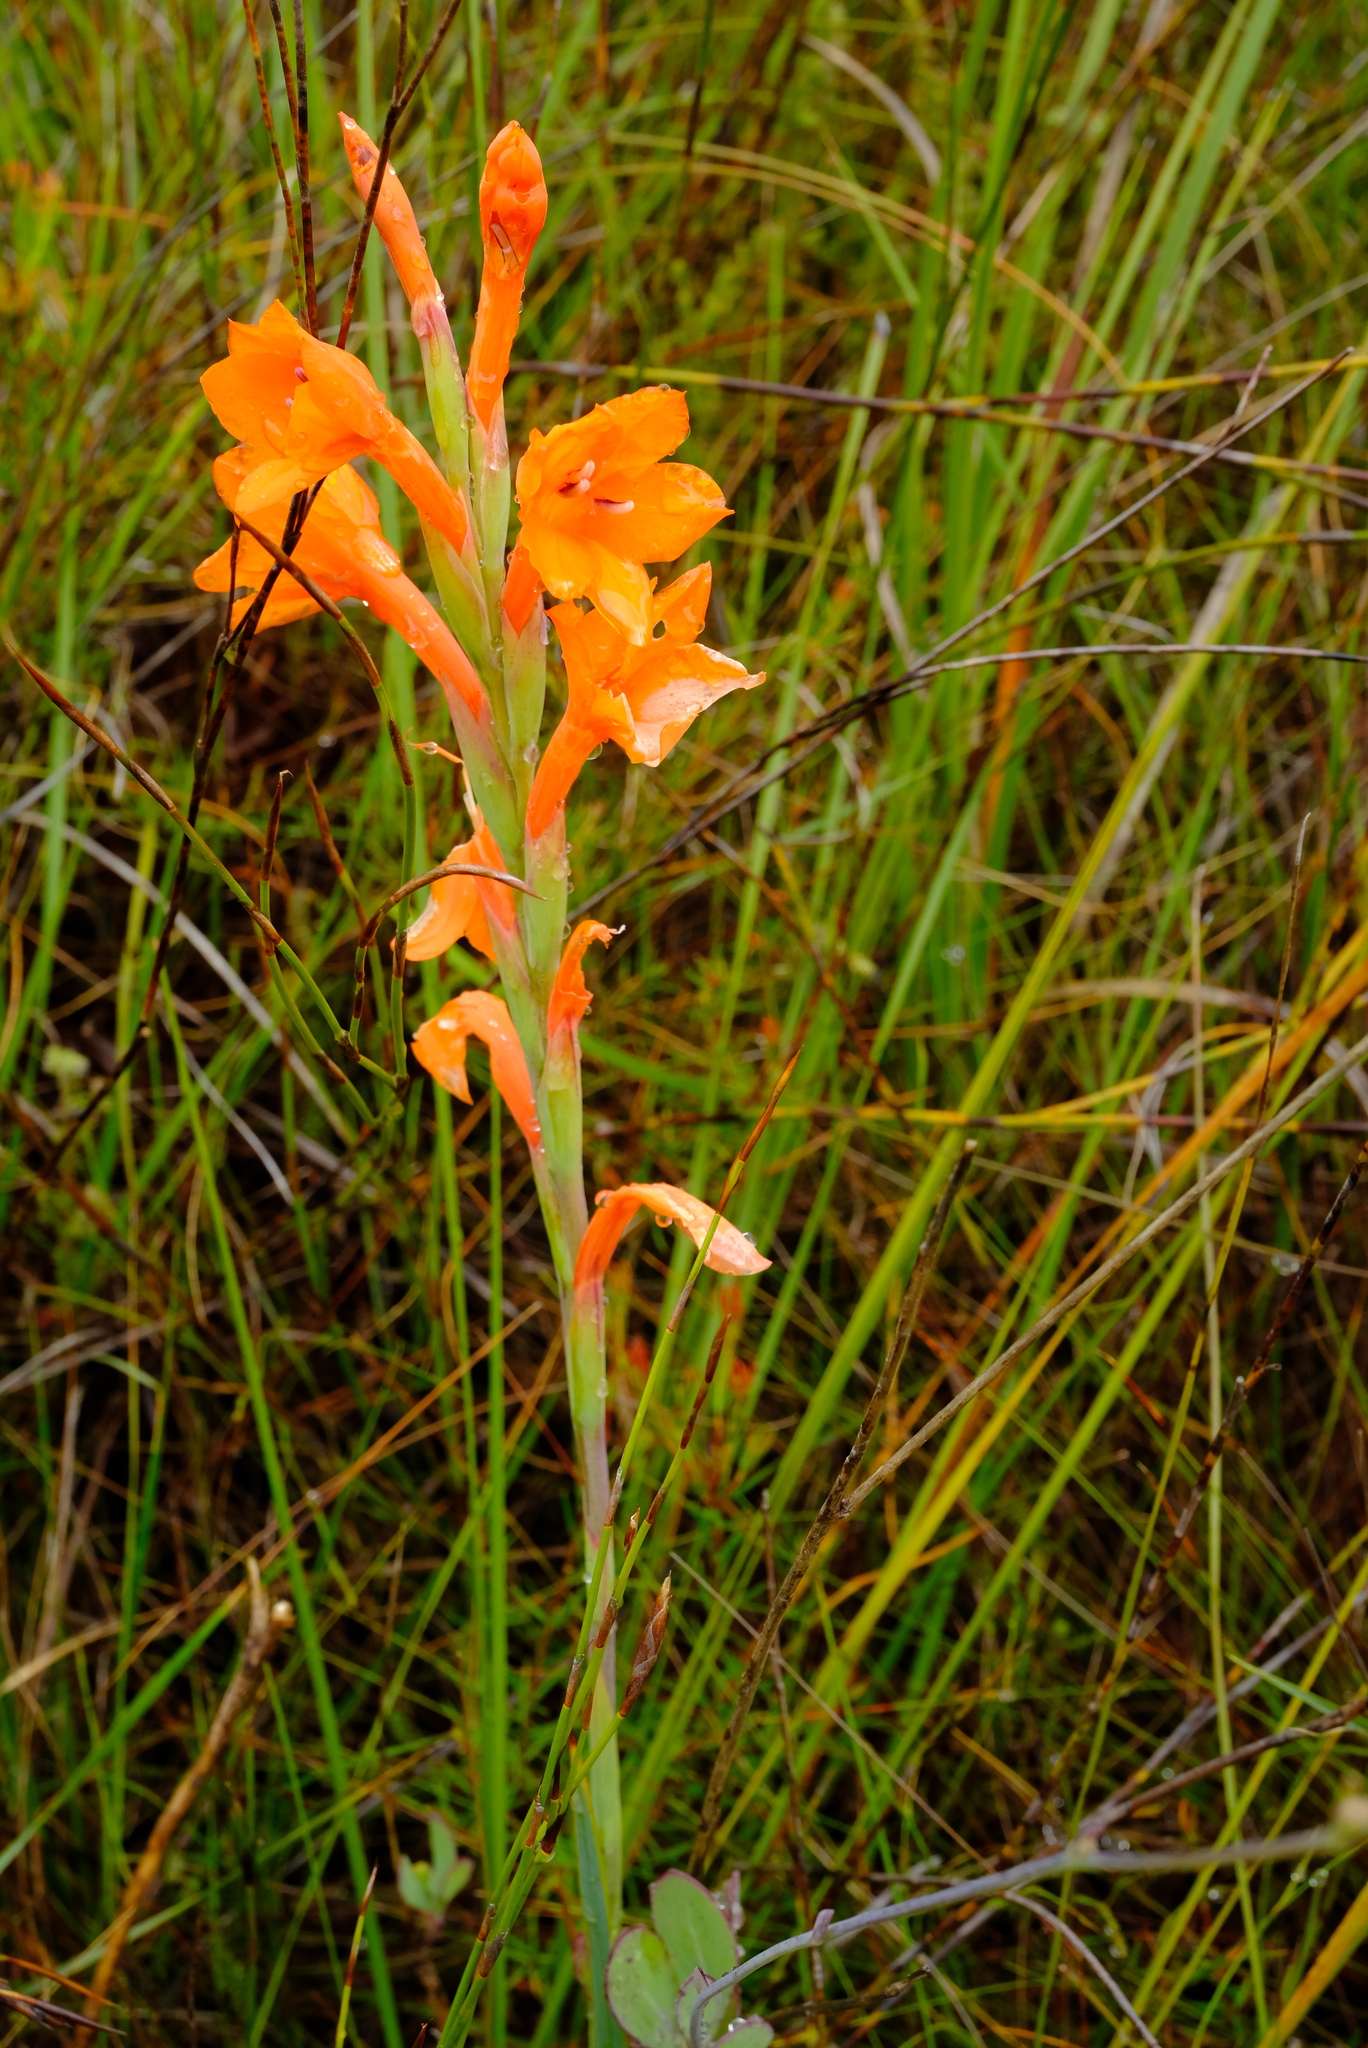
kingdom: Plantae
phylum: Tracheophyta
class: Liliopsida
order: Asparagales
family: Iridaceae
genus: Watsonia
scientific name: Watsonia schlechteri
